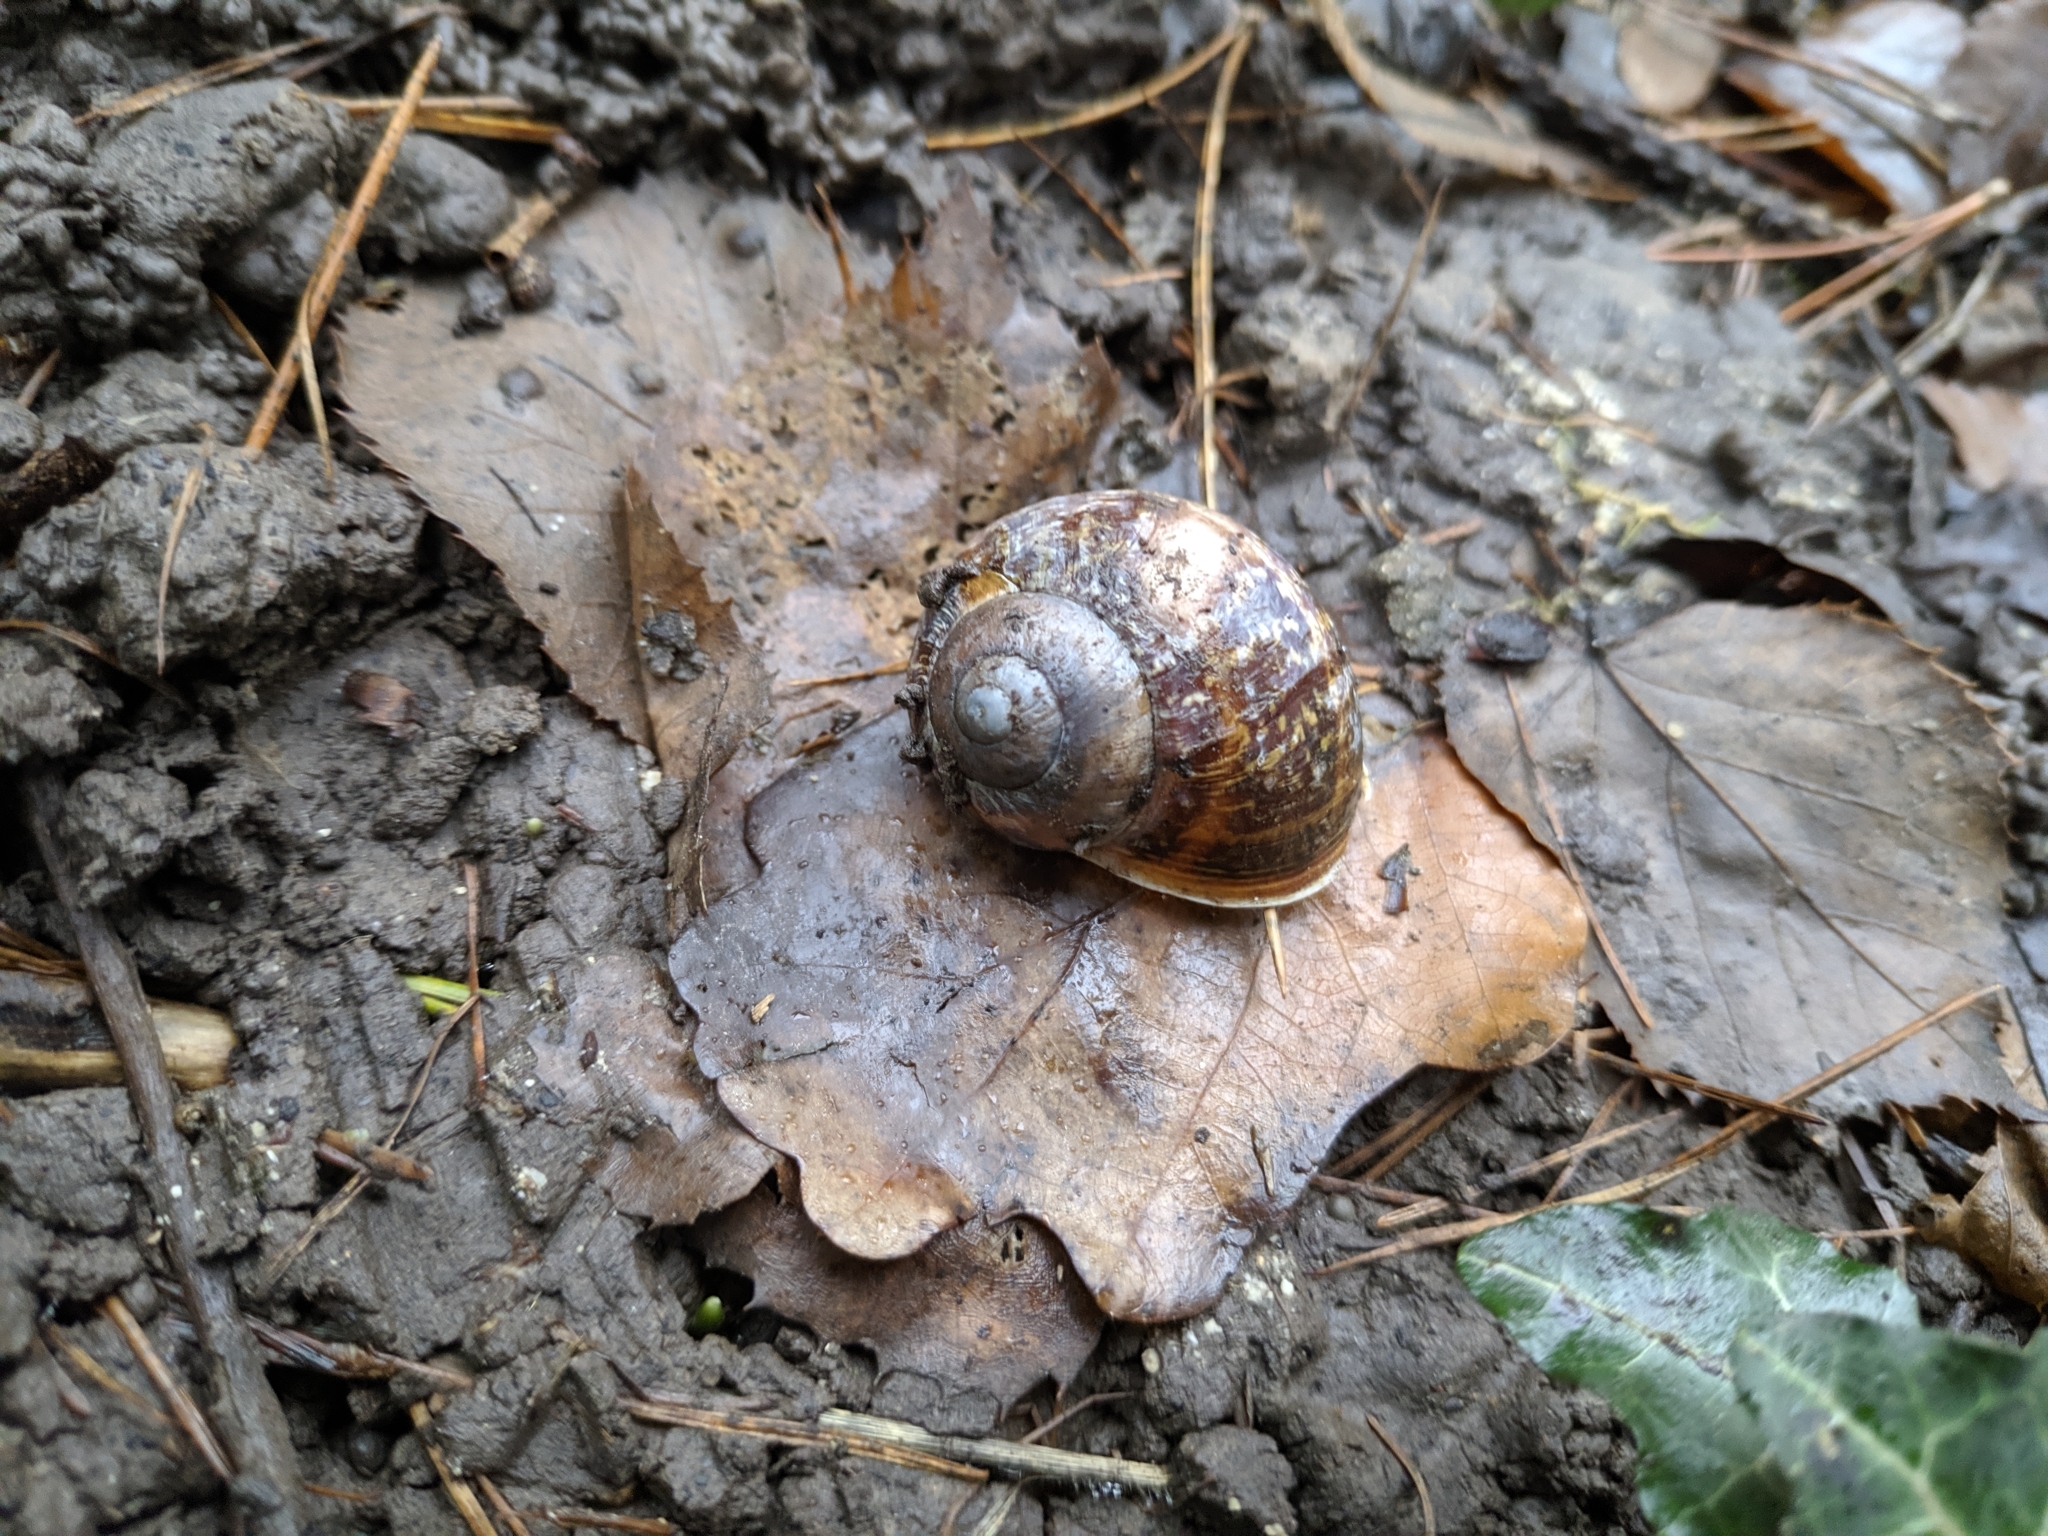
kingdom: Animalia
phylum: Mollusca
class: Gastropoda
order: Stylommatophora
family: Helicidae
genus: Cornu
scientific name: Cornu aspersum
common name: Brown garden snail
